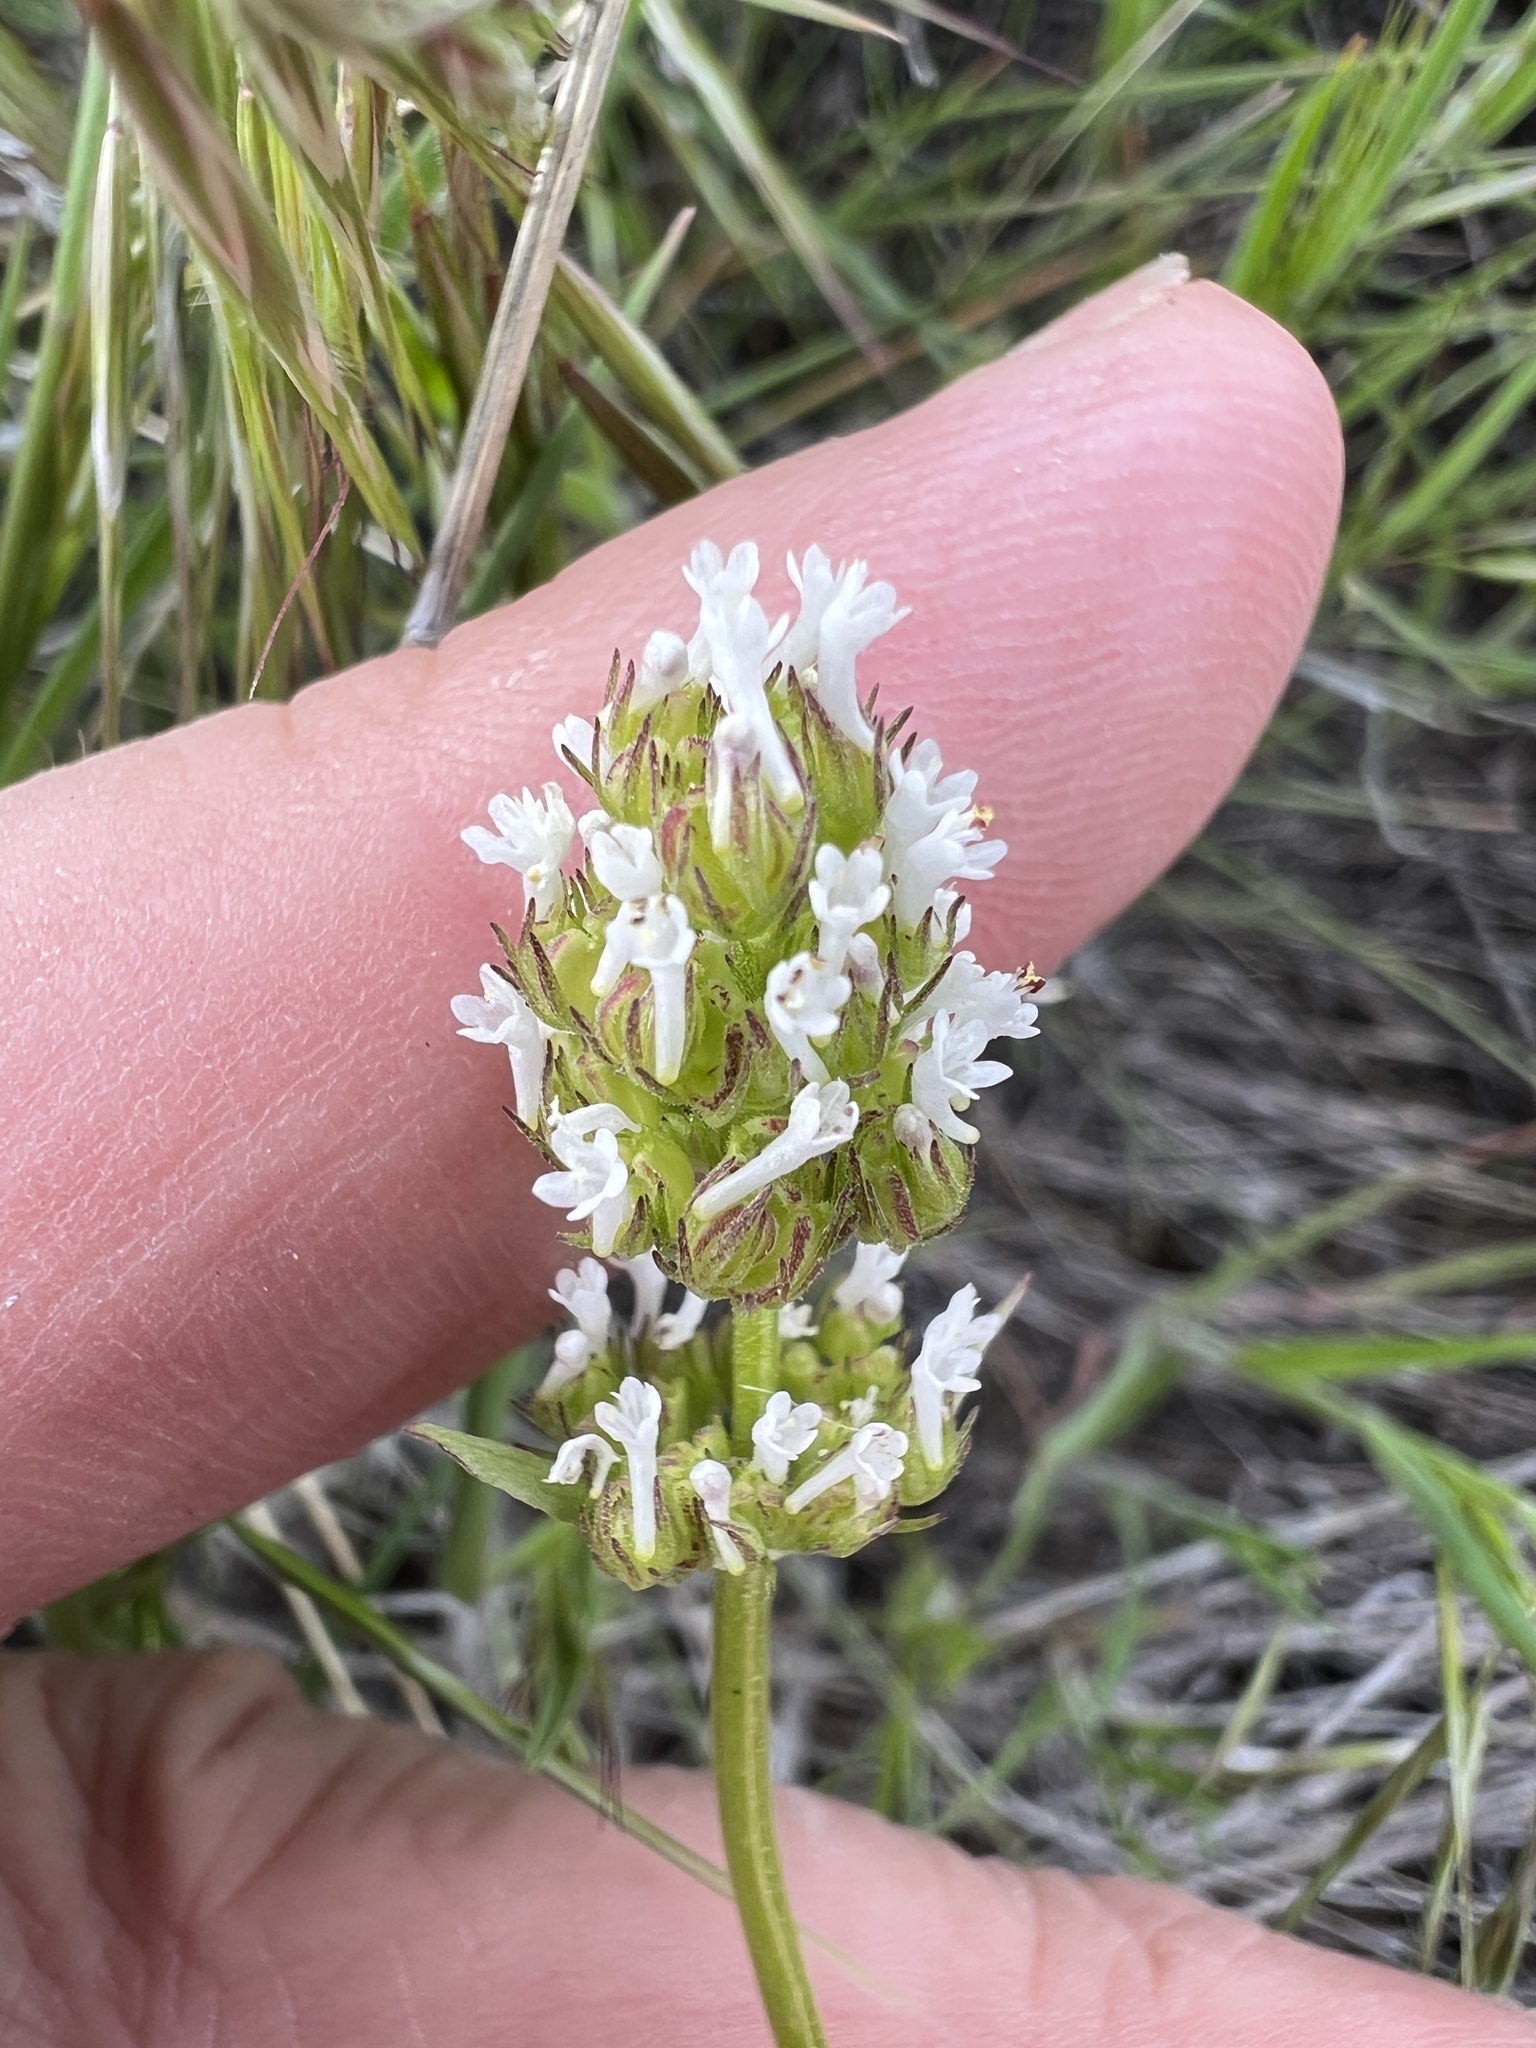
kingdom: Plantae
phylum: Tracheophyta
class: Magnoliopsida
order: Dipsacales
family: Caprifoliaceae
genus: Plectritis
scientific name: Plectritis macroptera
